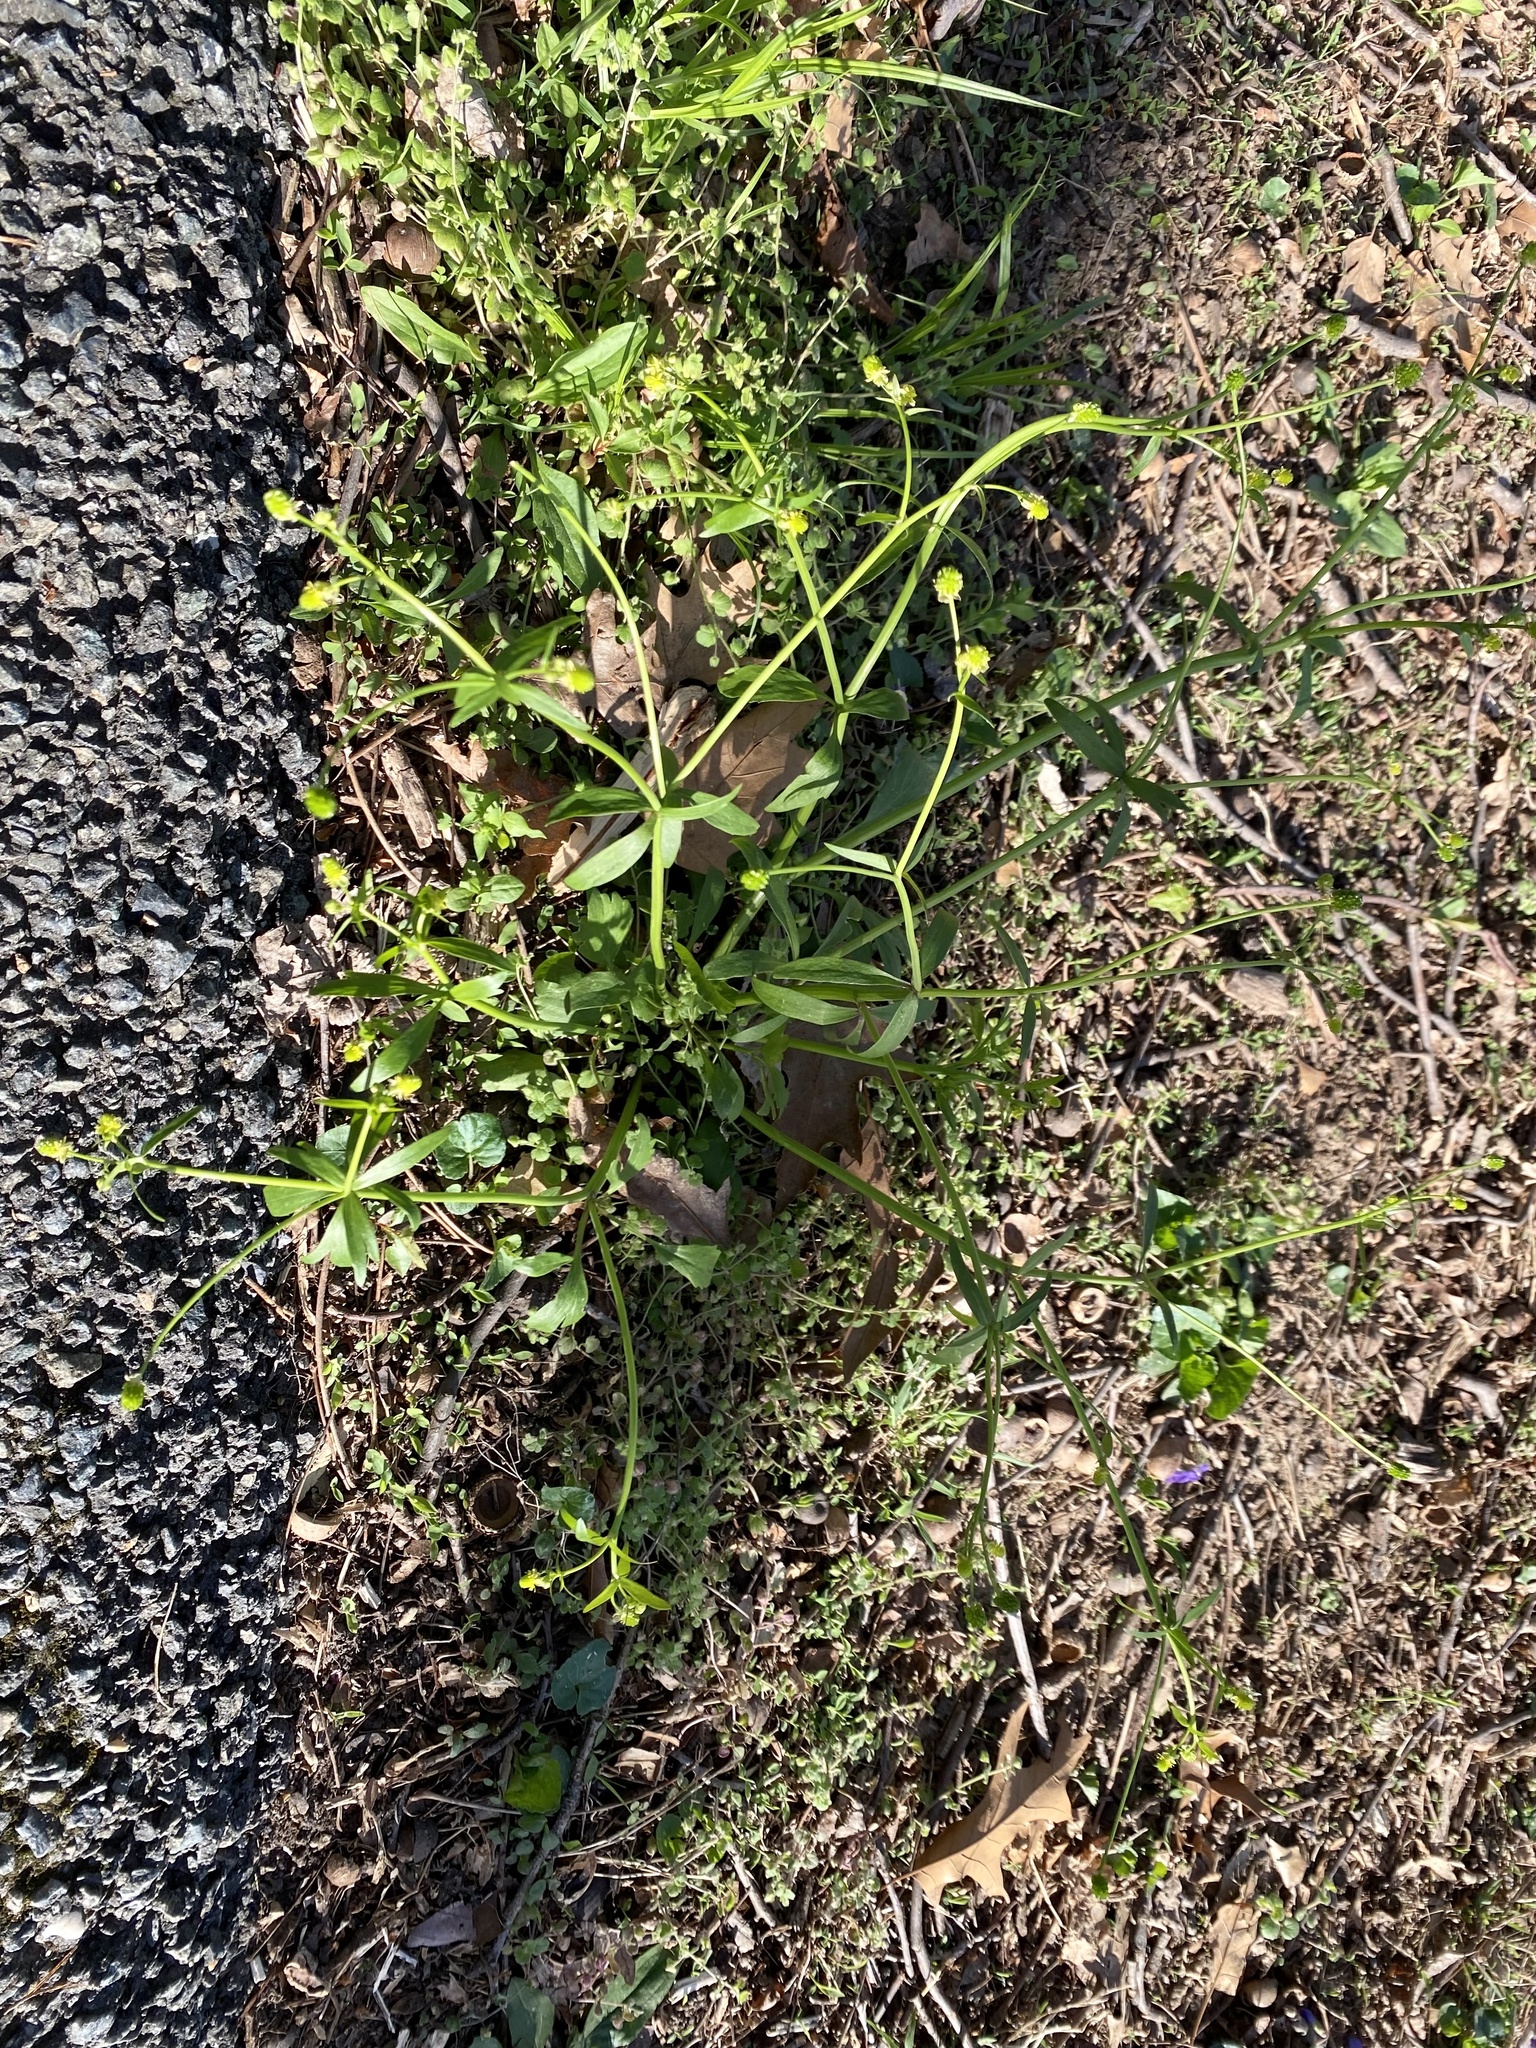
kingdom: Plantae
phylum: Tracheophyta
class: Magnoliopsida
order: Ranunculales
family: Ranunculaceae
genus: Ranunculus
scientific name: Ranunculus abortivus
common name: Early wood buttercup
